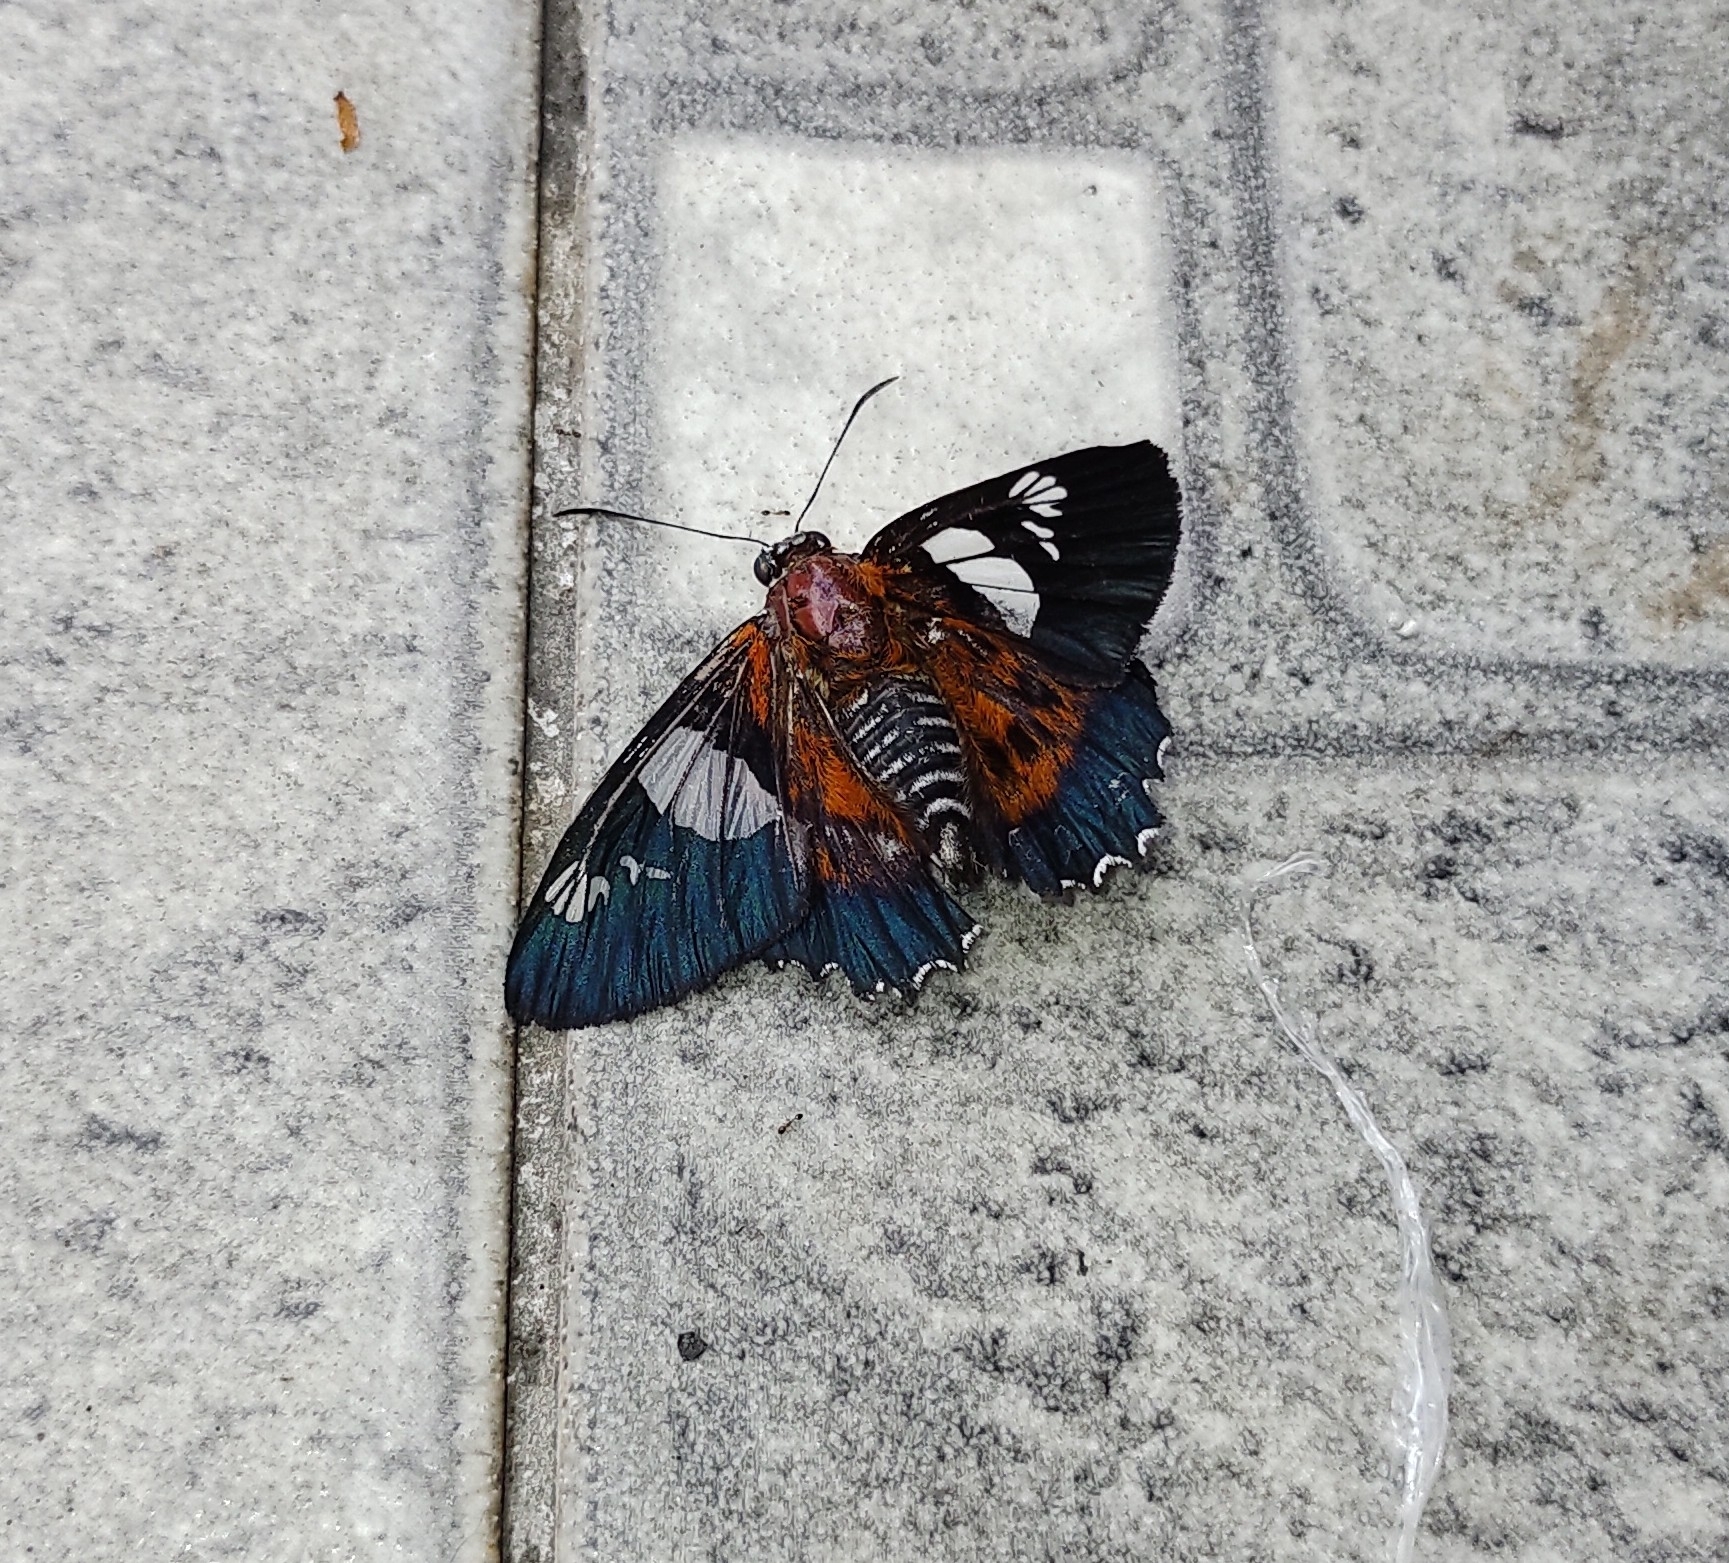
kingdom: Animalia
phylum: Arthropoda
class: Insecta
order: Lepidoptera
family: Hesperiidae
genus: Myscelus
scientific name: Myscelus pardalina
